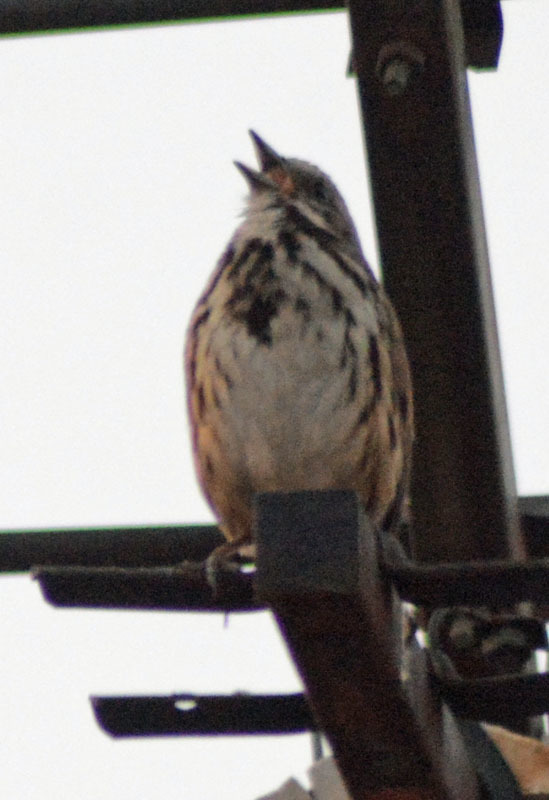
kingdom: Animalia
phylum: Chordata
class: Aves
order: Passeriformes
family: Passerellidae
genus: Melospiza
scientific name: Melospiza melodia
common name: Song sparrow
